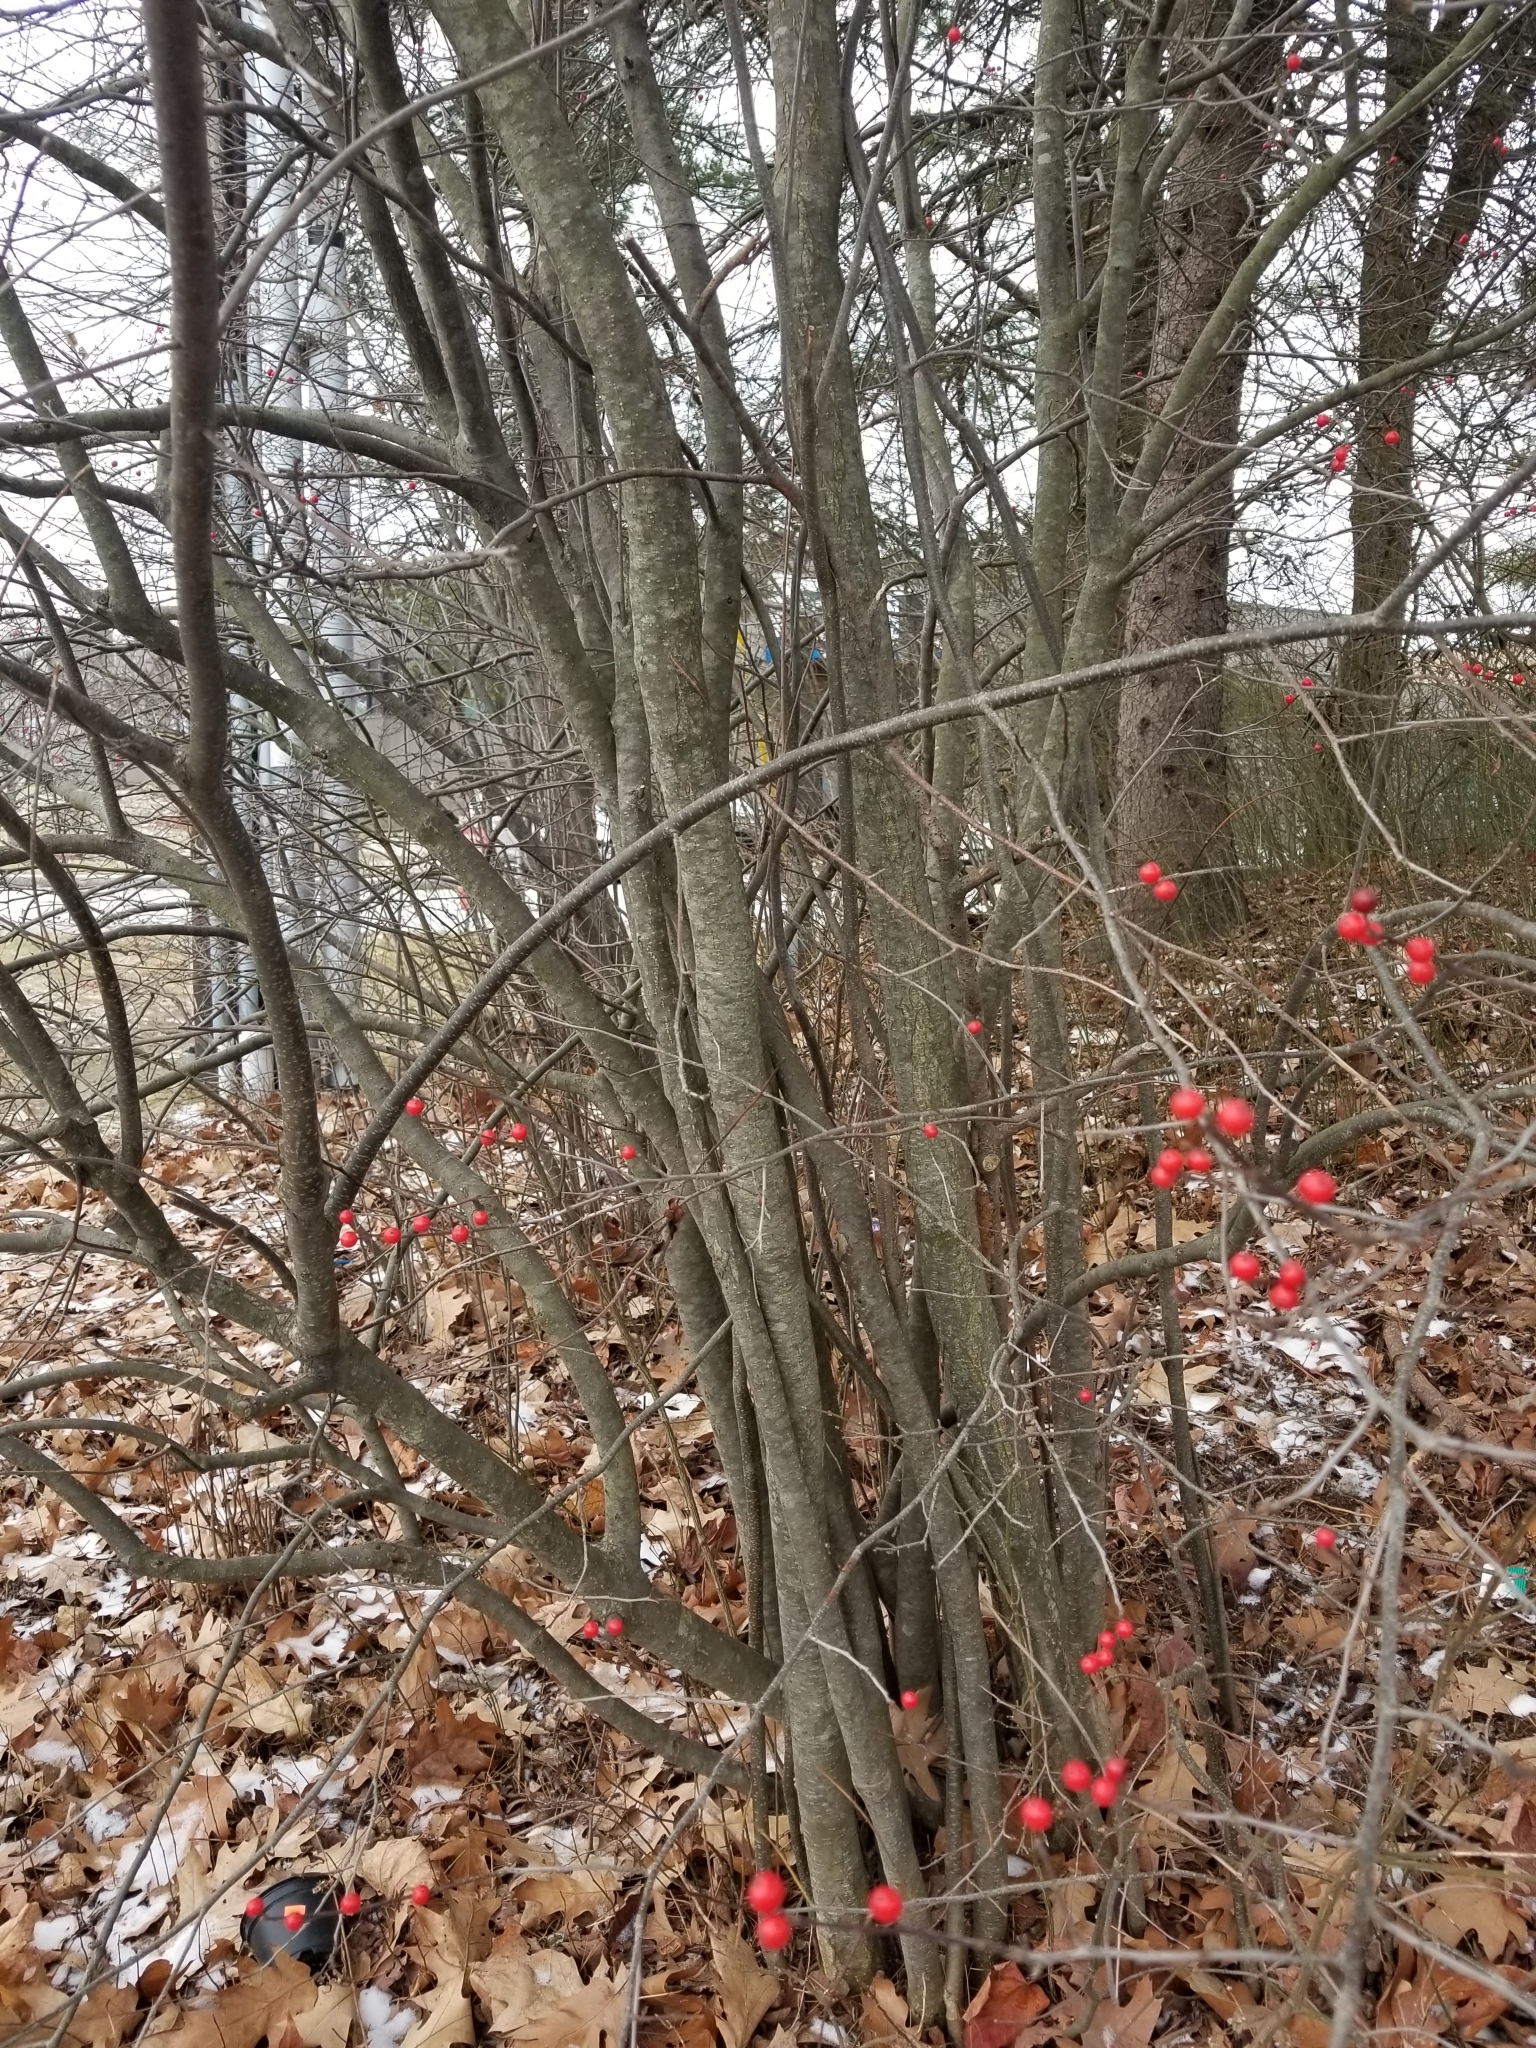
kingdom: Plantae
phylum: Tracheophyta
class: Magnoliopsida
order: Aquifoliales
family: Aquifoliaceae
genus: Ilex
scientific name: Ilex verticillata
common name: Virginia winterberry
